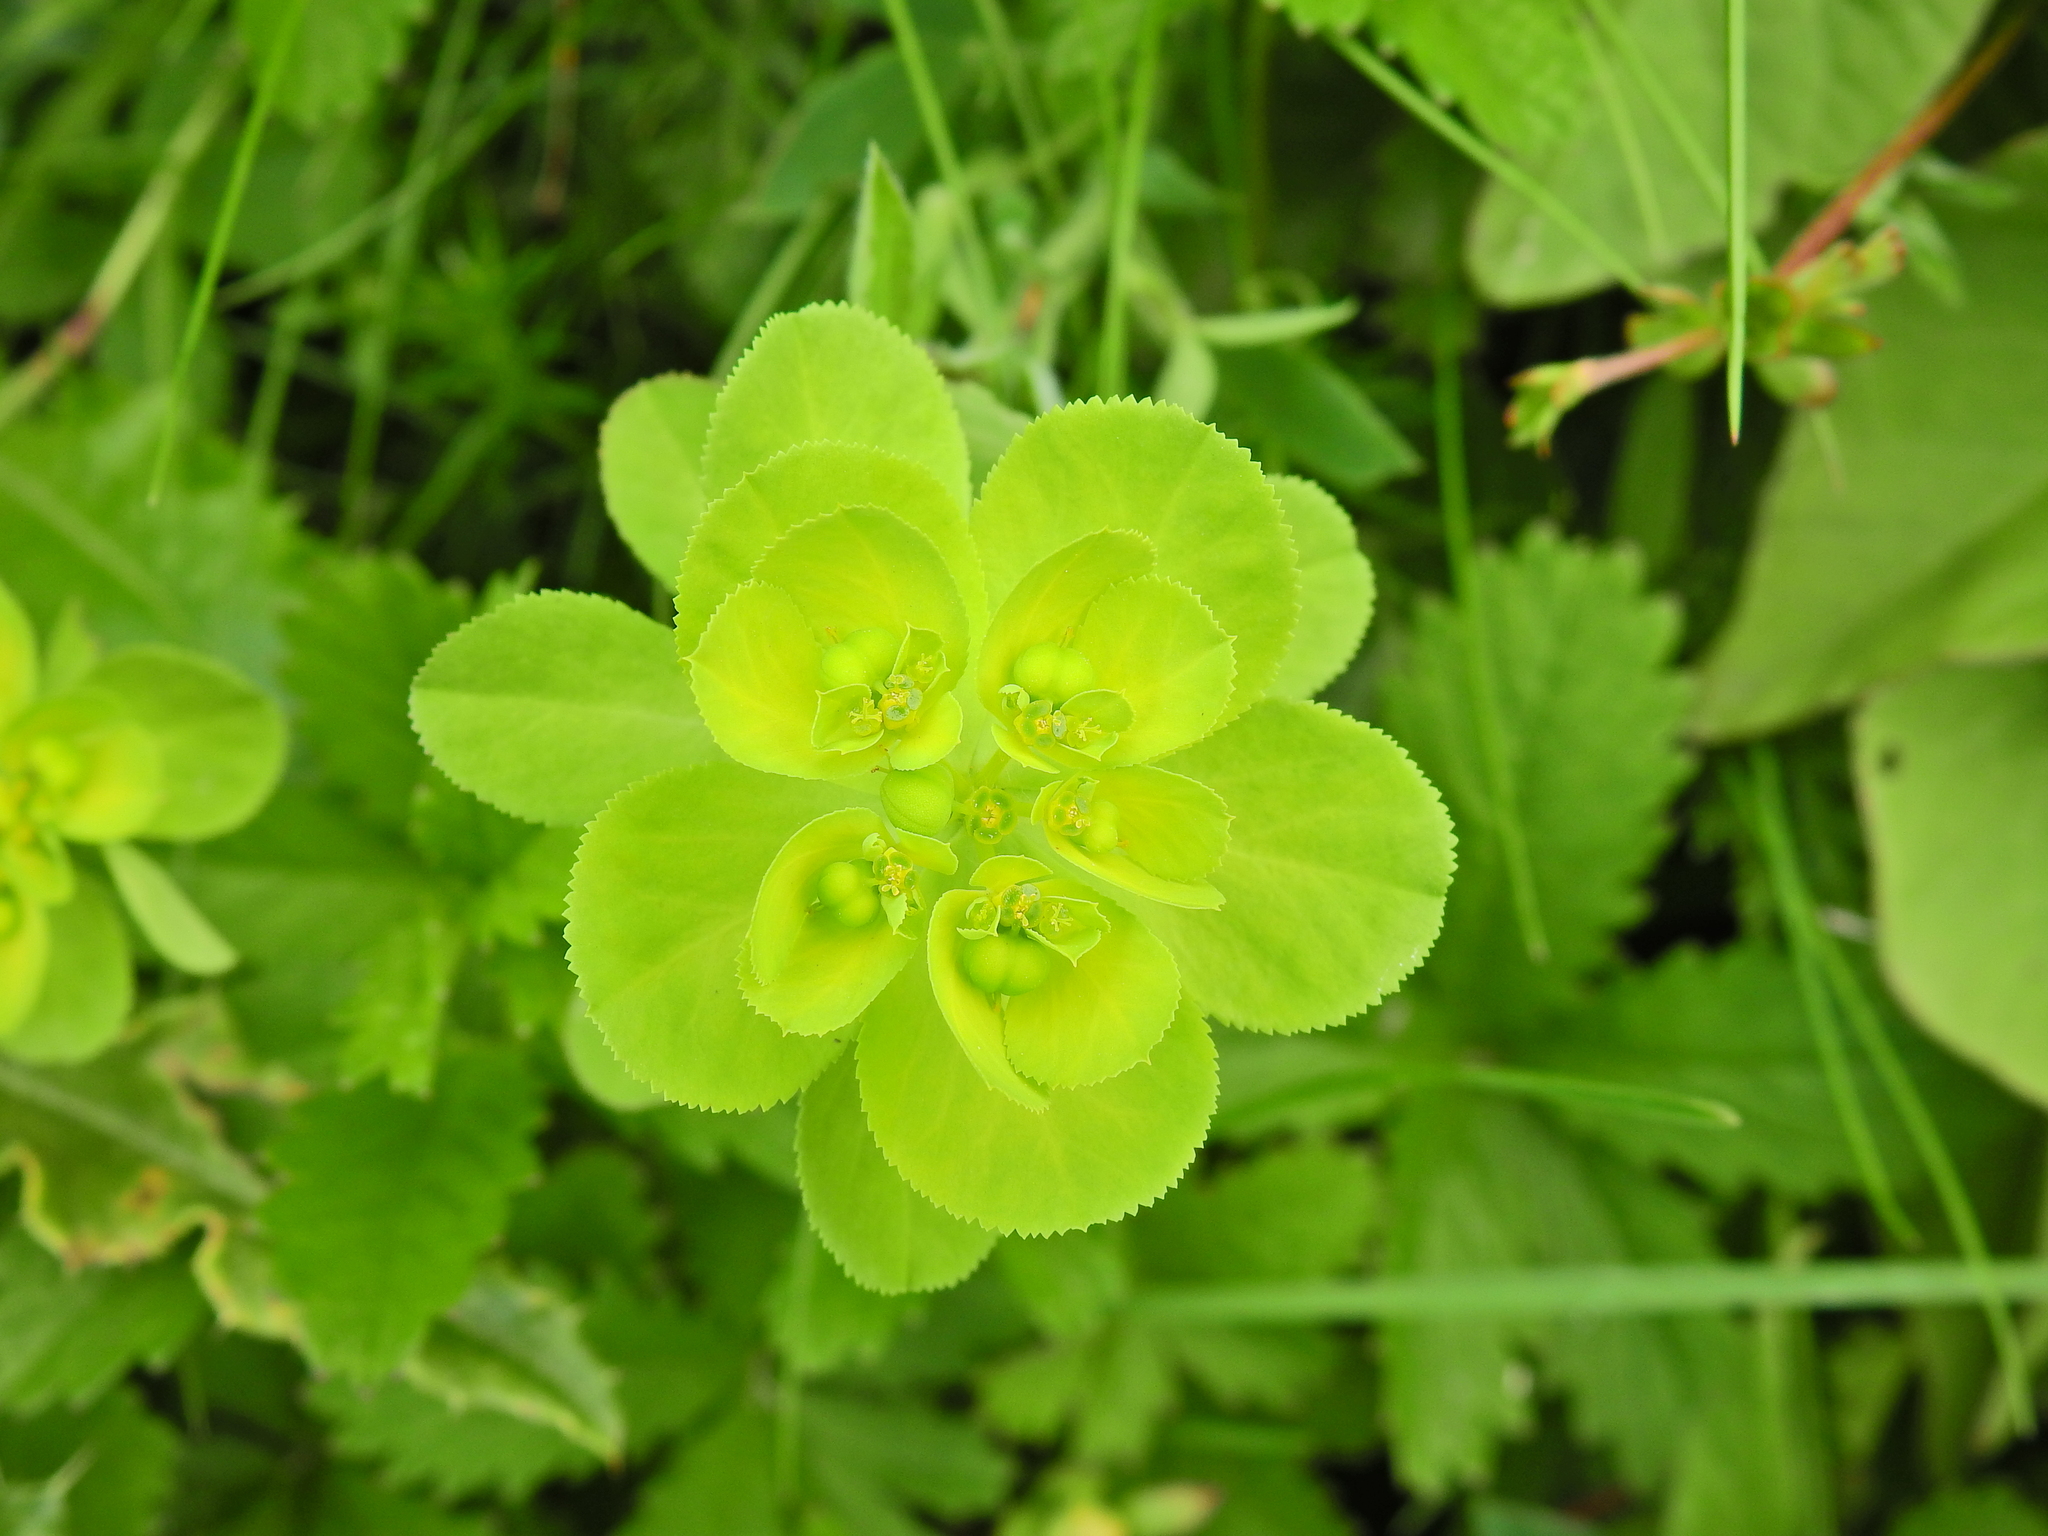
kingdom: Plantae
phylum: Tracheophyta
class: Magnoliopsida
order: Malpighiales
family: Euphorbiaceae
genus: Euphorbia
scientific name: Euphorbia helioscopia
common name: Sun spurge
